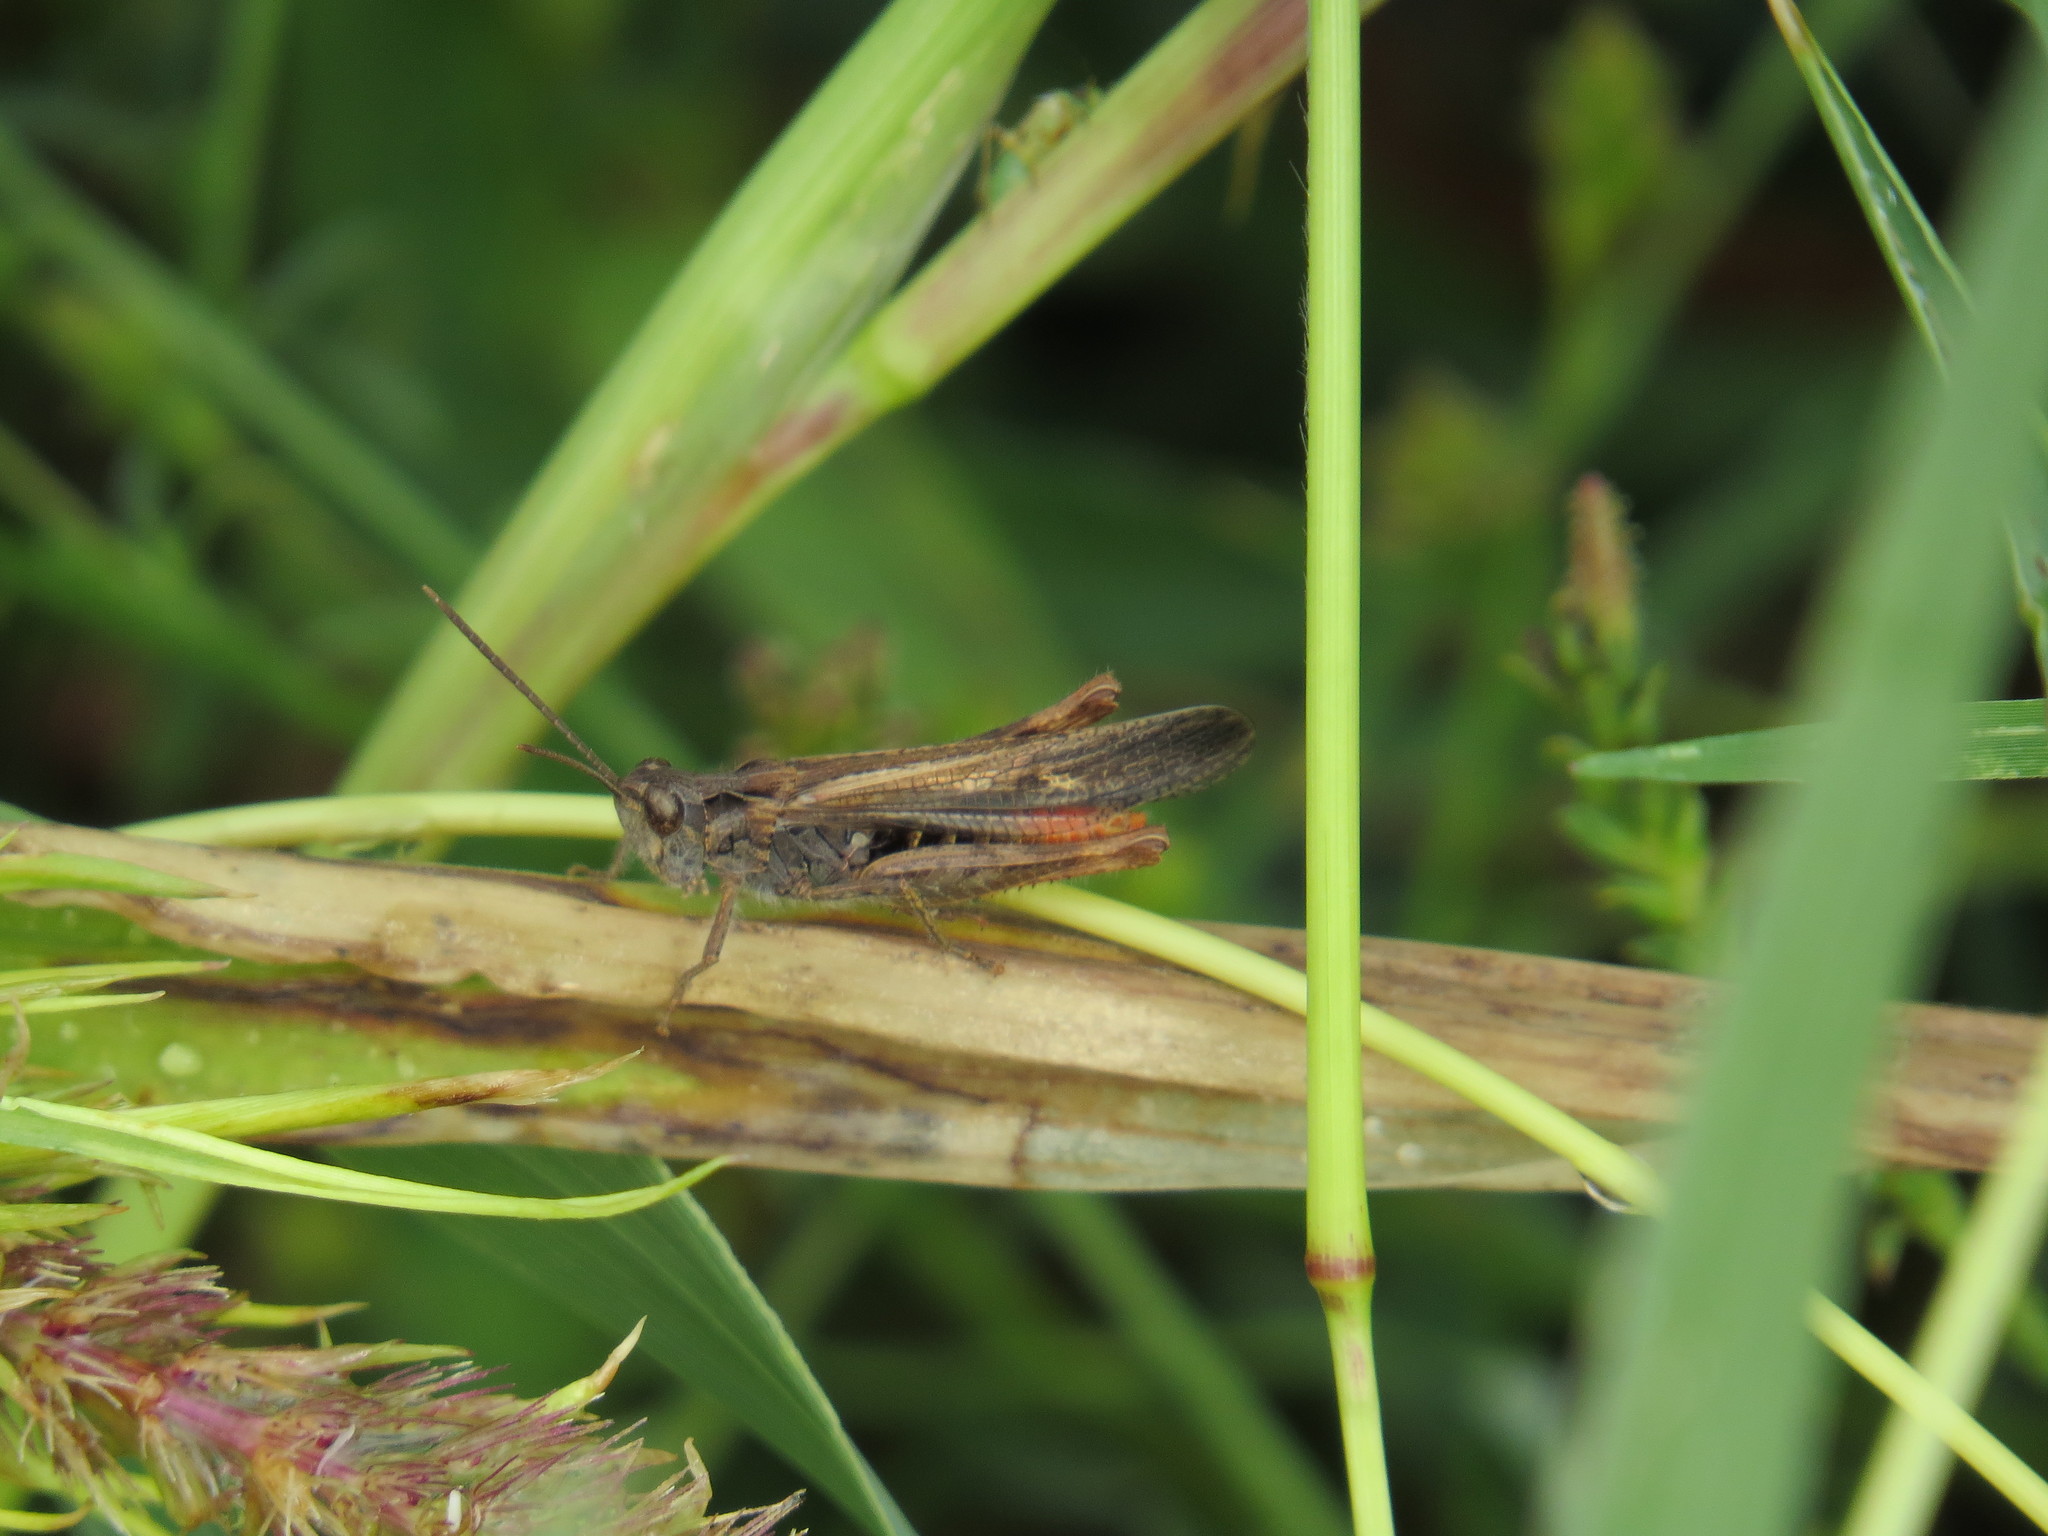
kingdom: Animalia
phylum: Arthropoda
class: Insecta
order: Orthoptera
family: Acrididae
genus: Chorthippus
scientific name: Chorthippus maritimus
